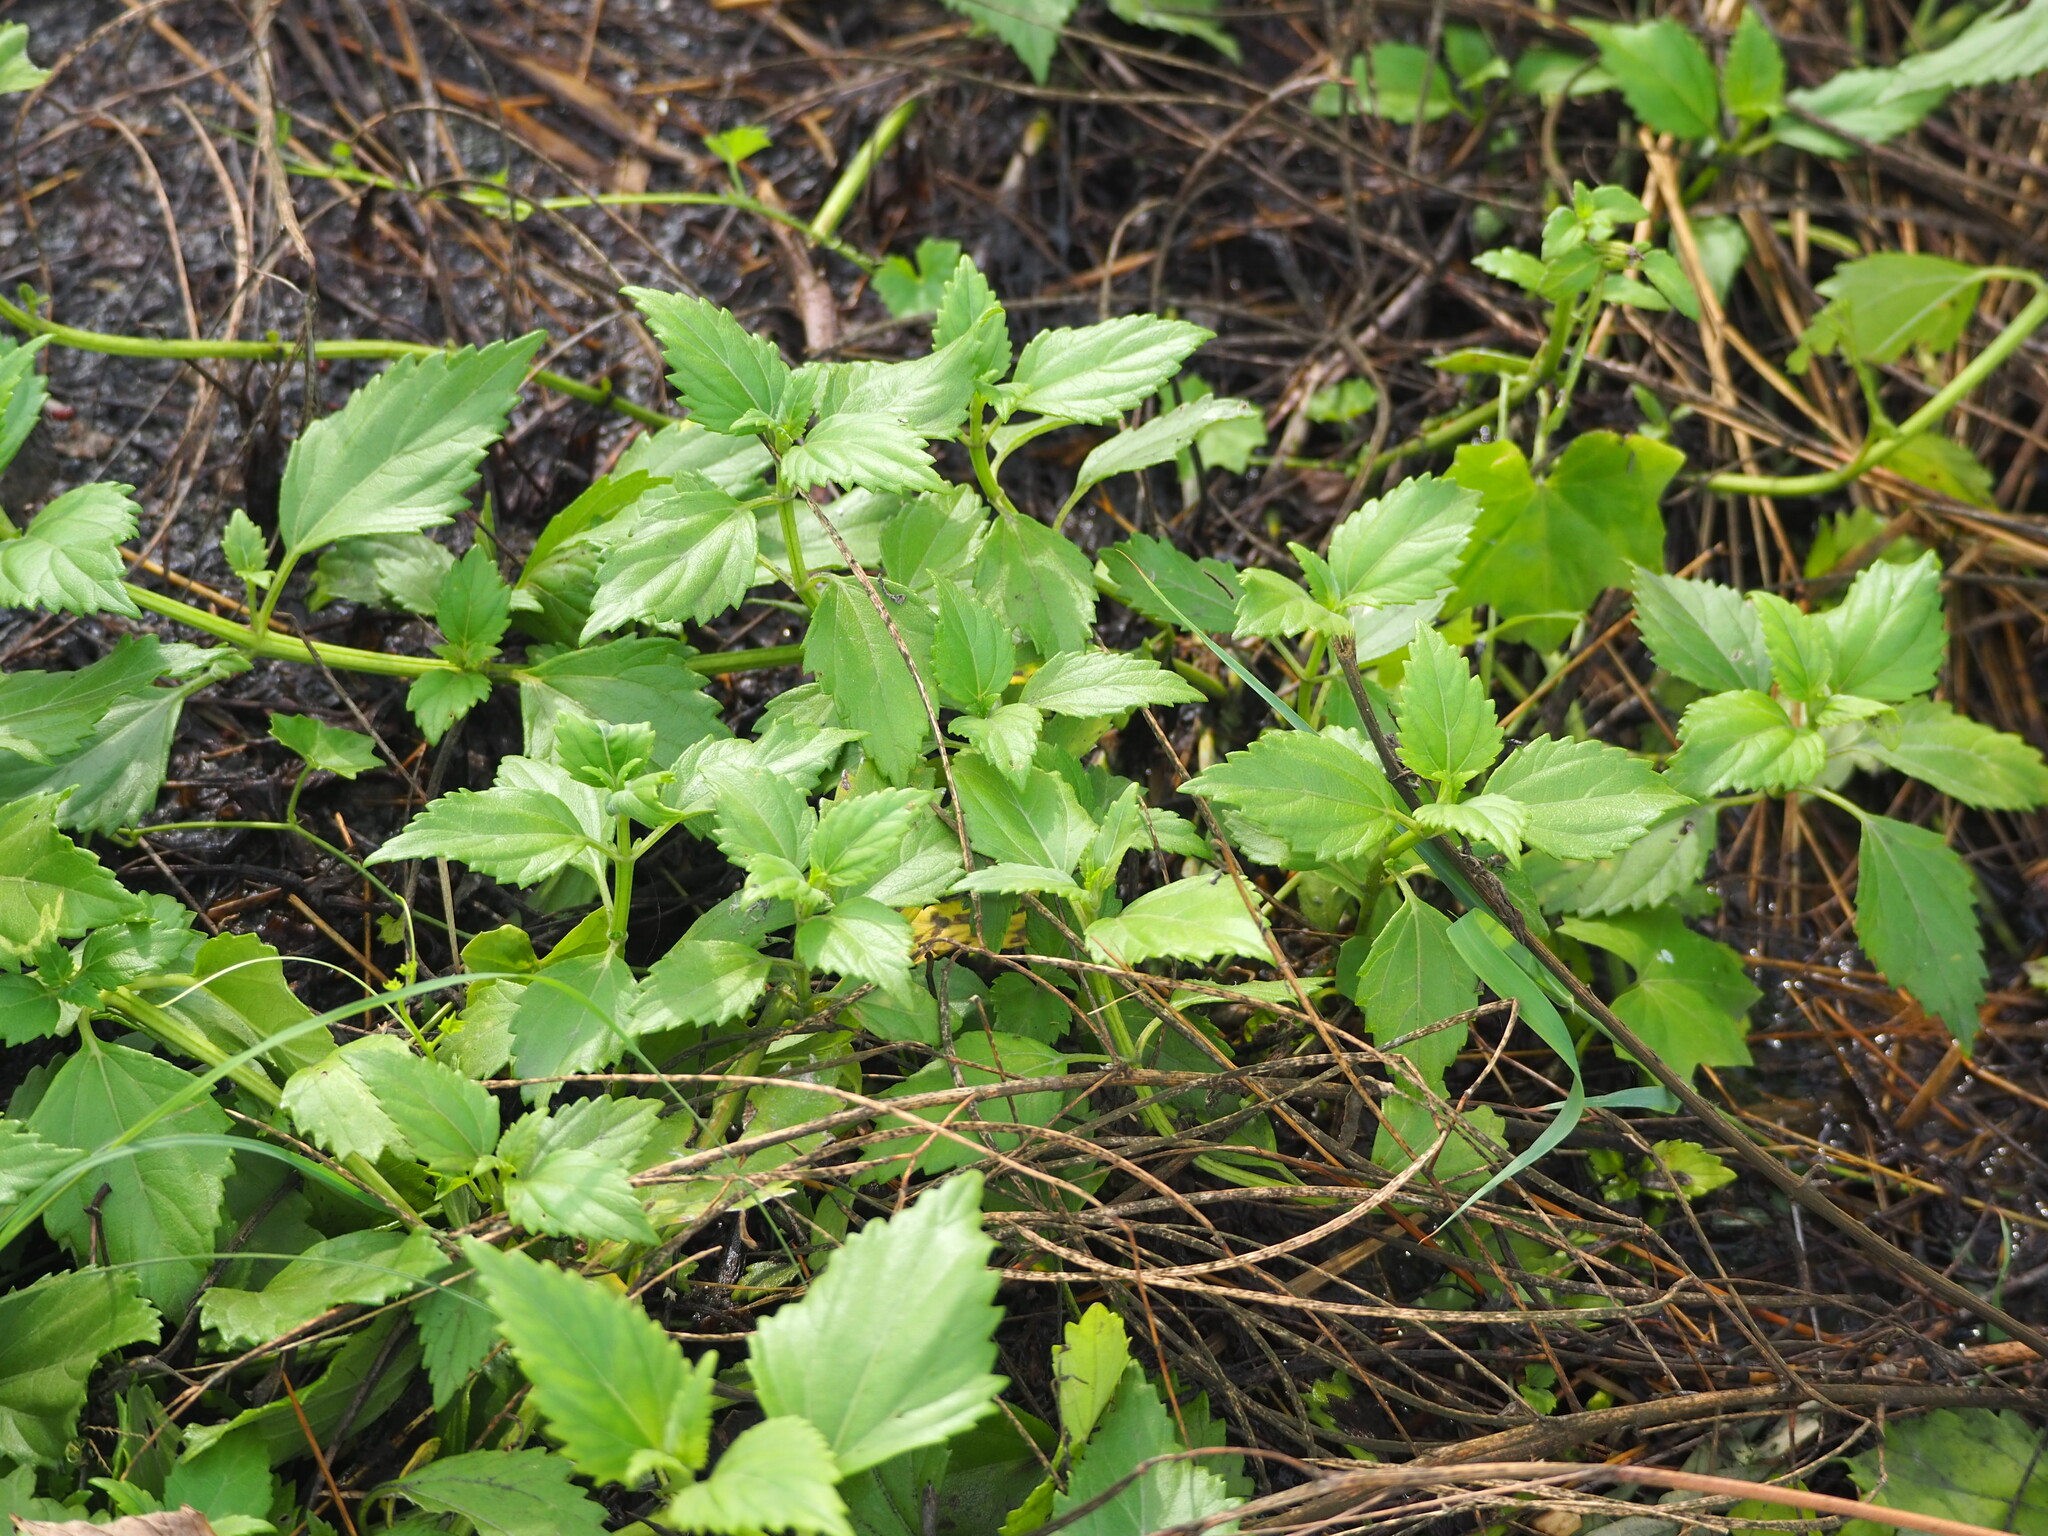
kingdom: Plantae
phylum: Tracheophyta
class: Magnoliopsida
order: Asterales
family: Asteraceae
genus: Wollastonia
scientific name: Wollastonia biflora
